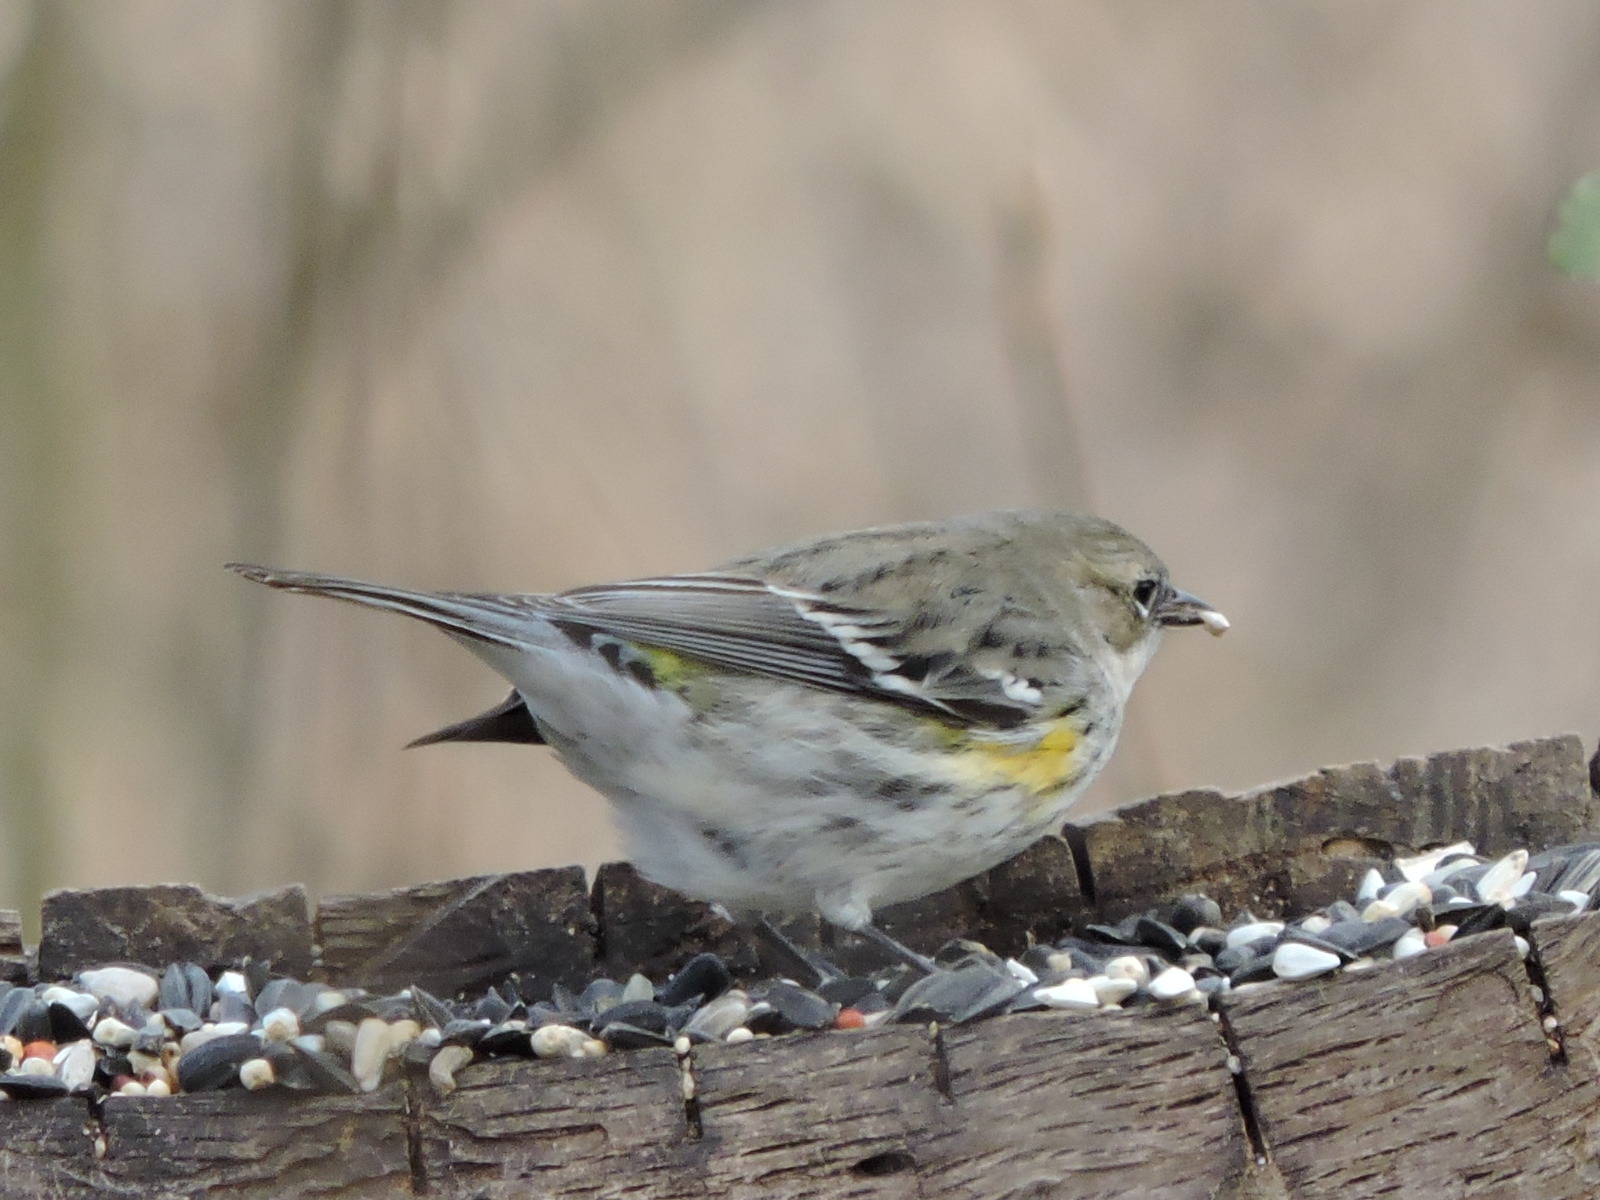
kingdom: Animalia
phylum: Chordata
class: Aves
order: Passeriformes
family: Parulidae
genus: Setophaga
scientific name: Setophaga coronata
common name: Myrtle warbler
